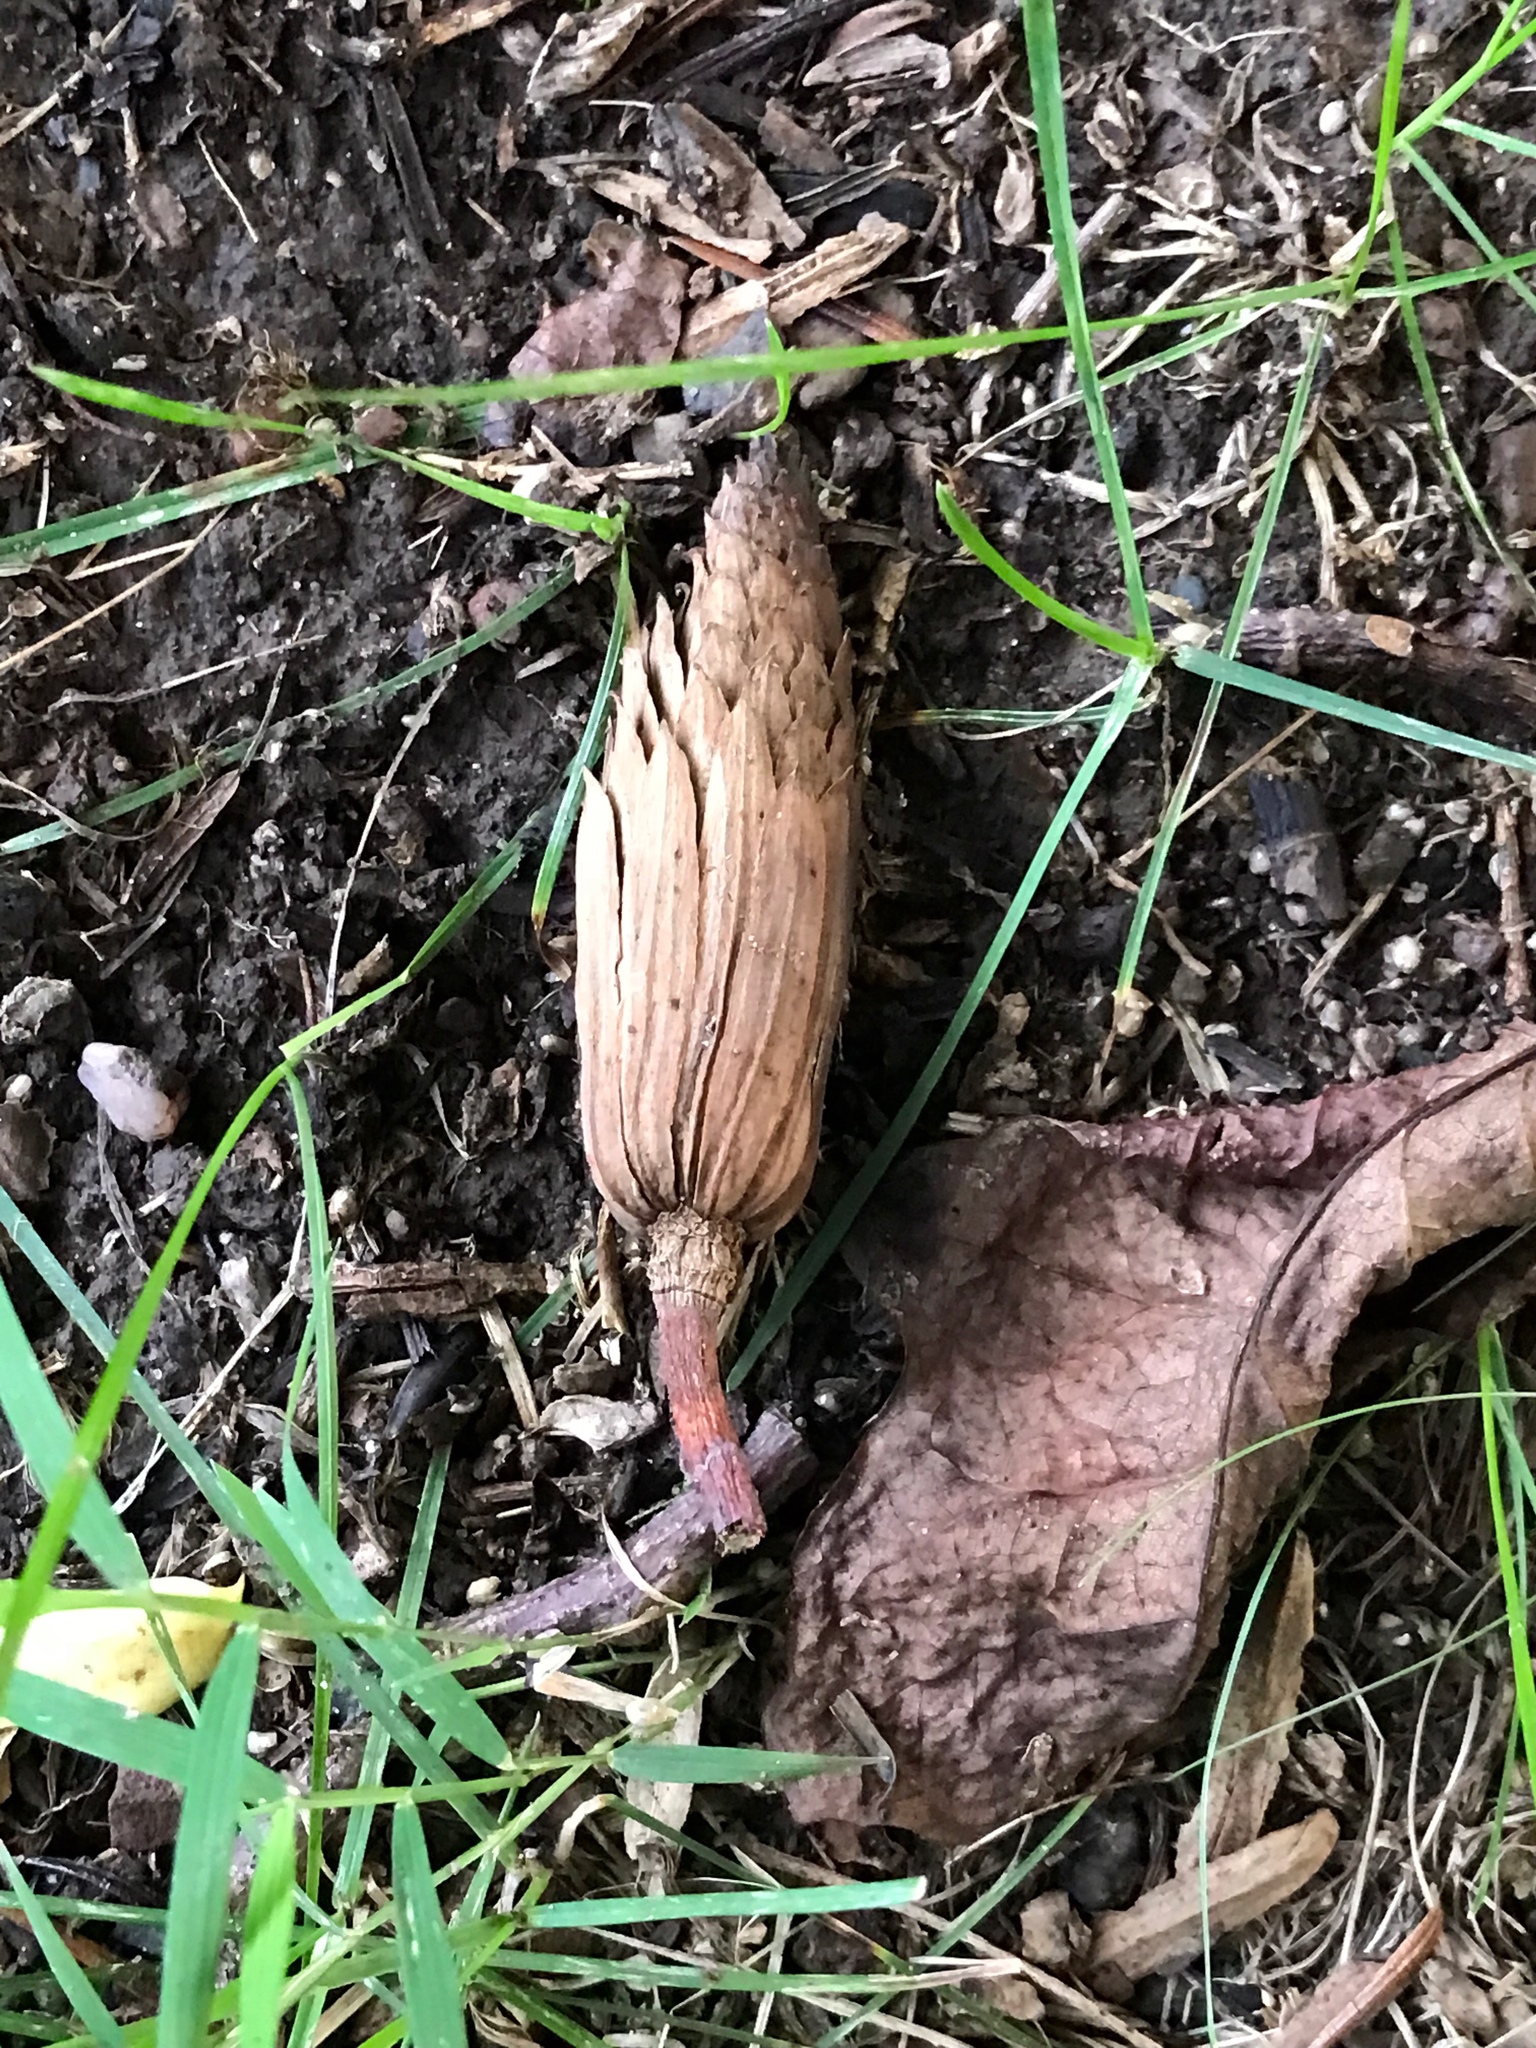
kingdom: Plantae
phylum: Tracheophyta
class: Magnoliopsida
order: Magnoliales
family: Magnoliaceae
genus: Liriodendron
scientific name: Liriodendron tulipifera
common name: Tulip tree
